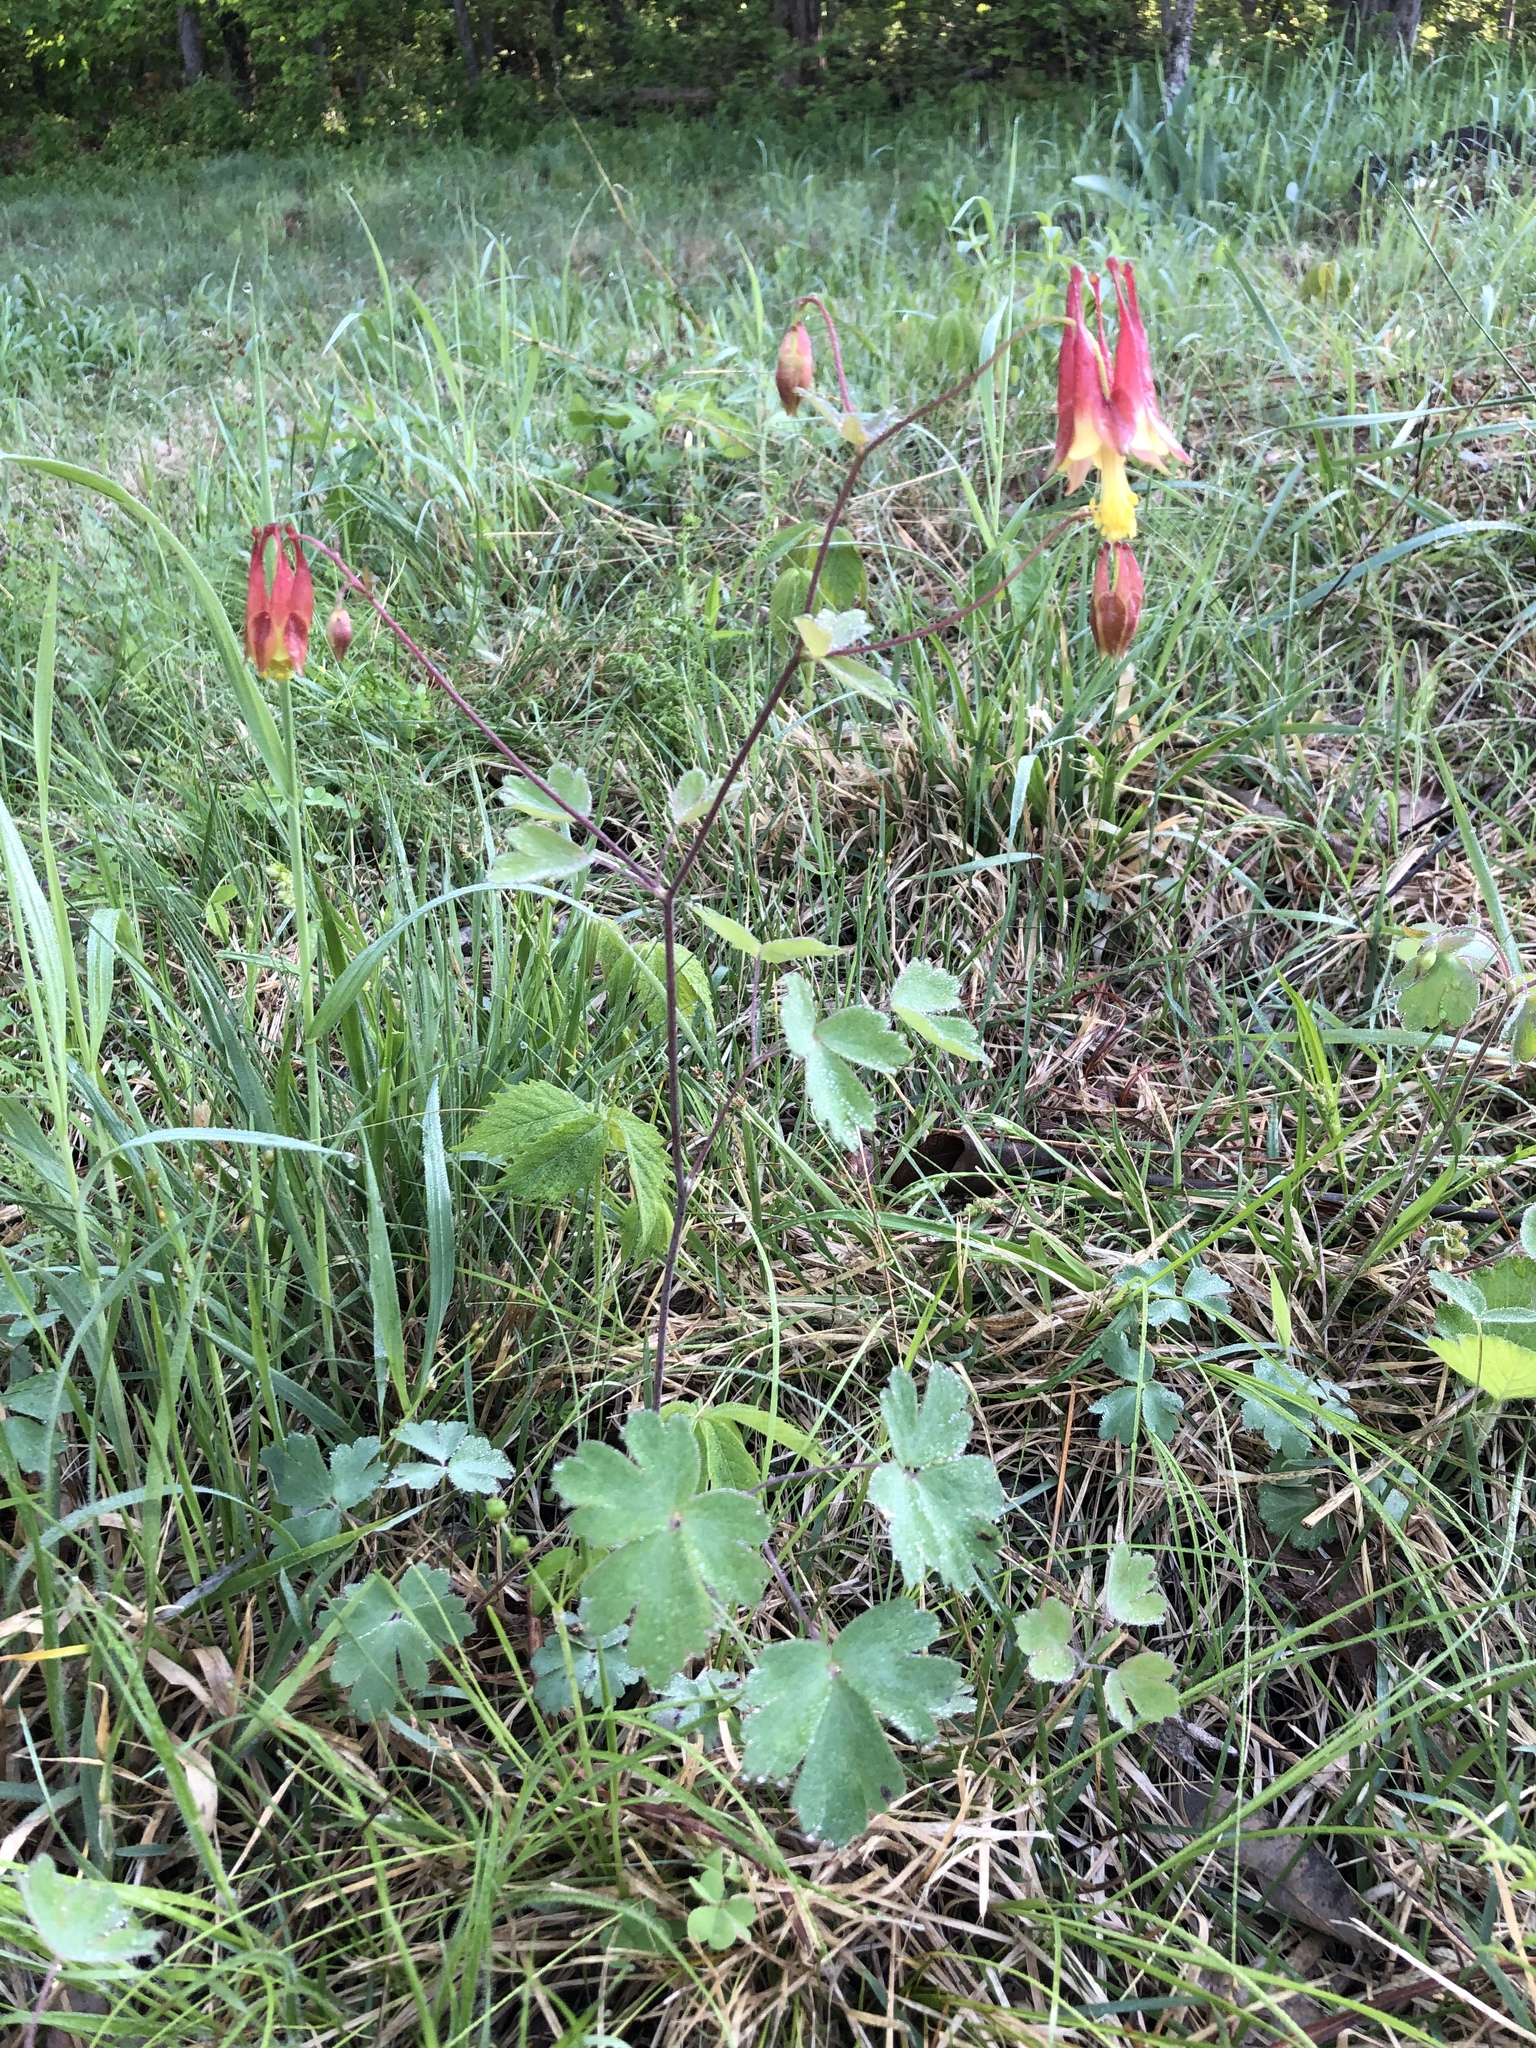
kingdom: Plantae
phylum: Tracheophyta
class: Magnoliopsida
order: Ranunculales
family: Ranunculaceae
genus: Aquilegia
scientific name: Aquilegia canadensis
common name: American columbine
